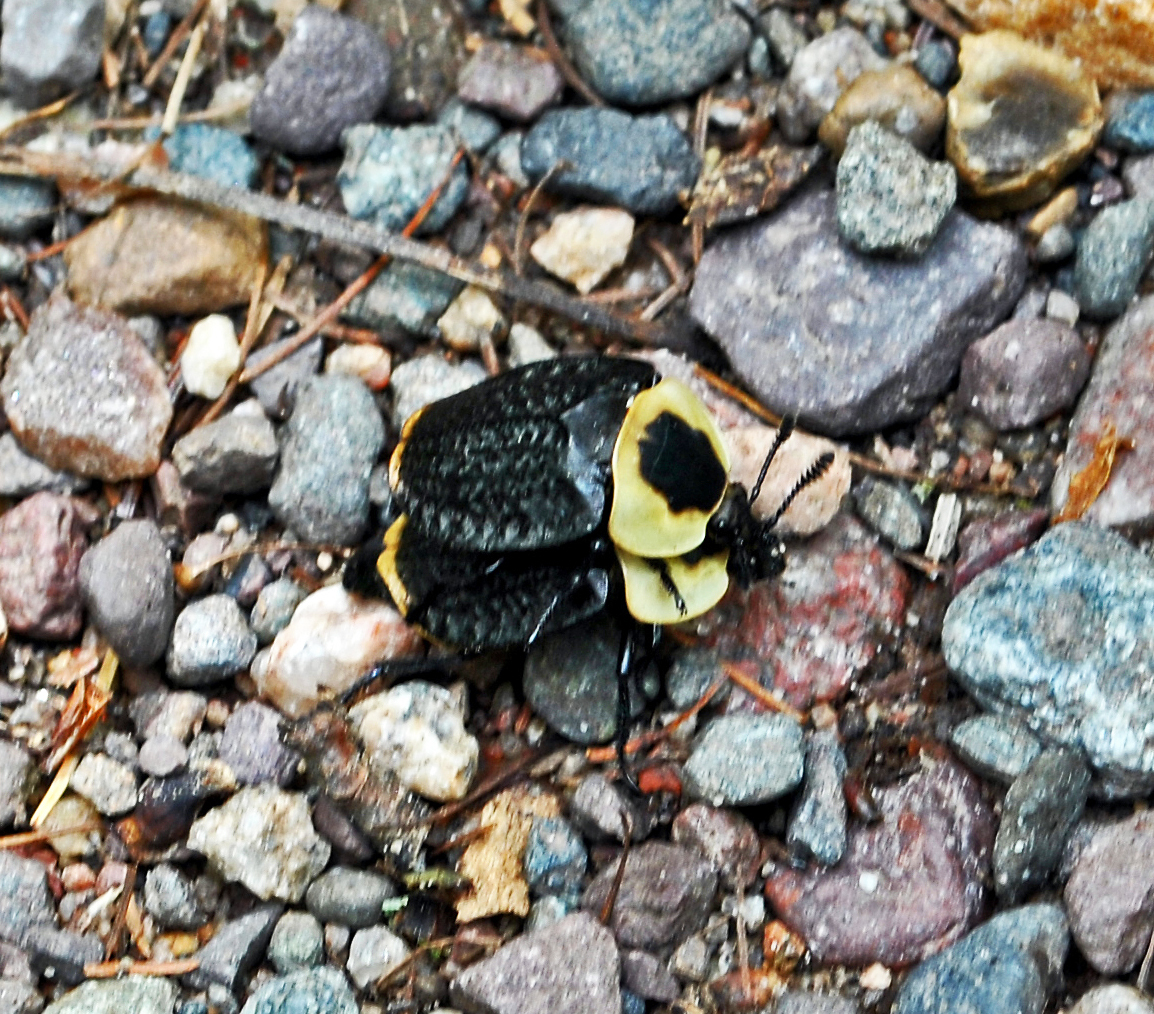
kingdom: Animalia
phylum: Arthropoda
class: Insecta
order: Coleoptera
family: Staphylinidae
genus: Necrophila
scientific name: Necrophila americana
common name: American carrion beetle
